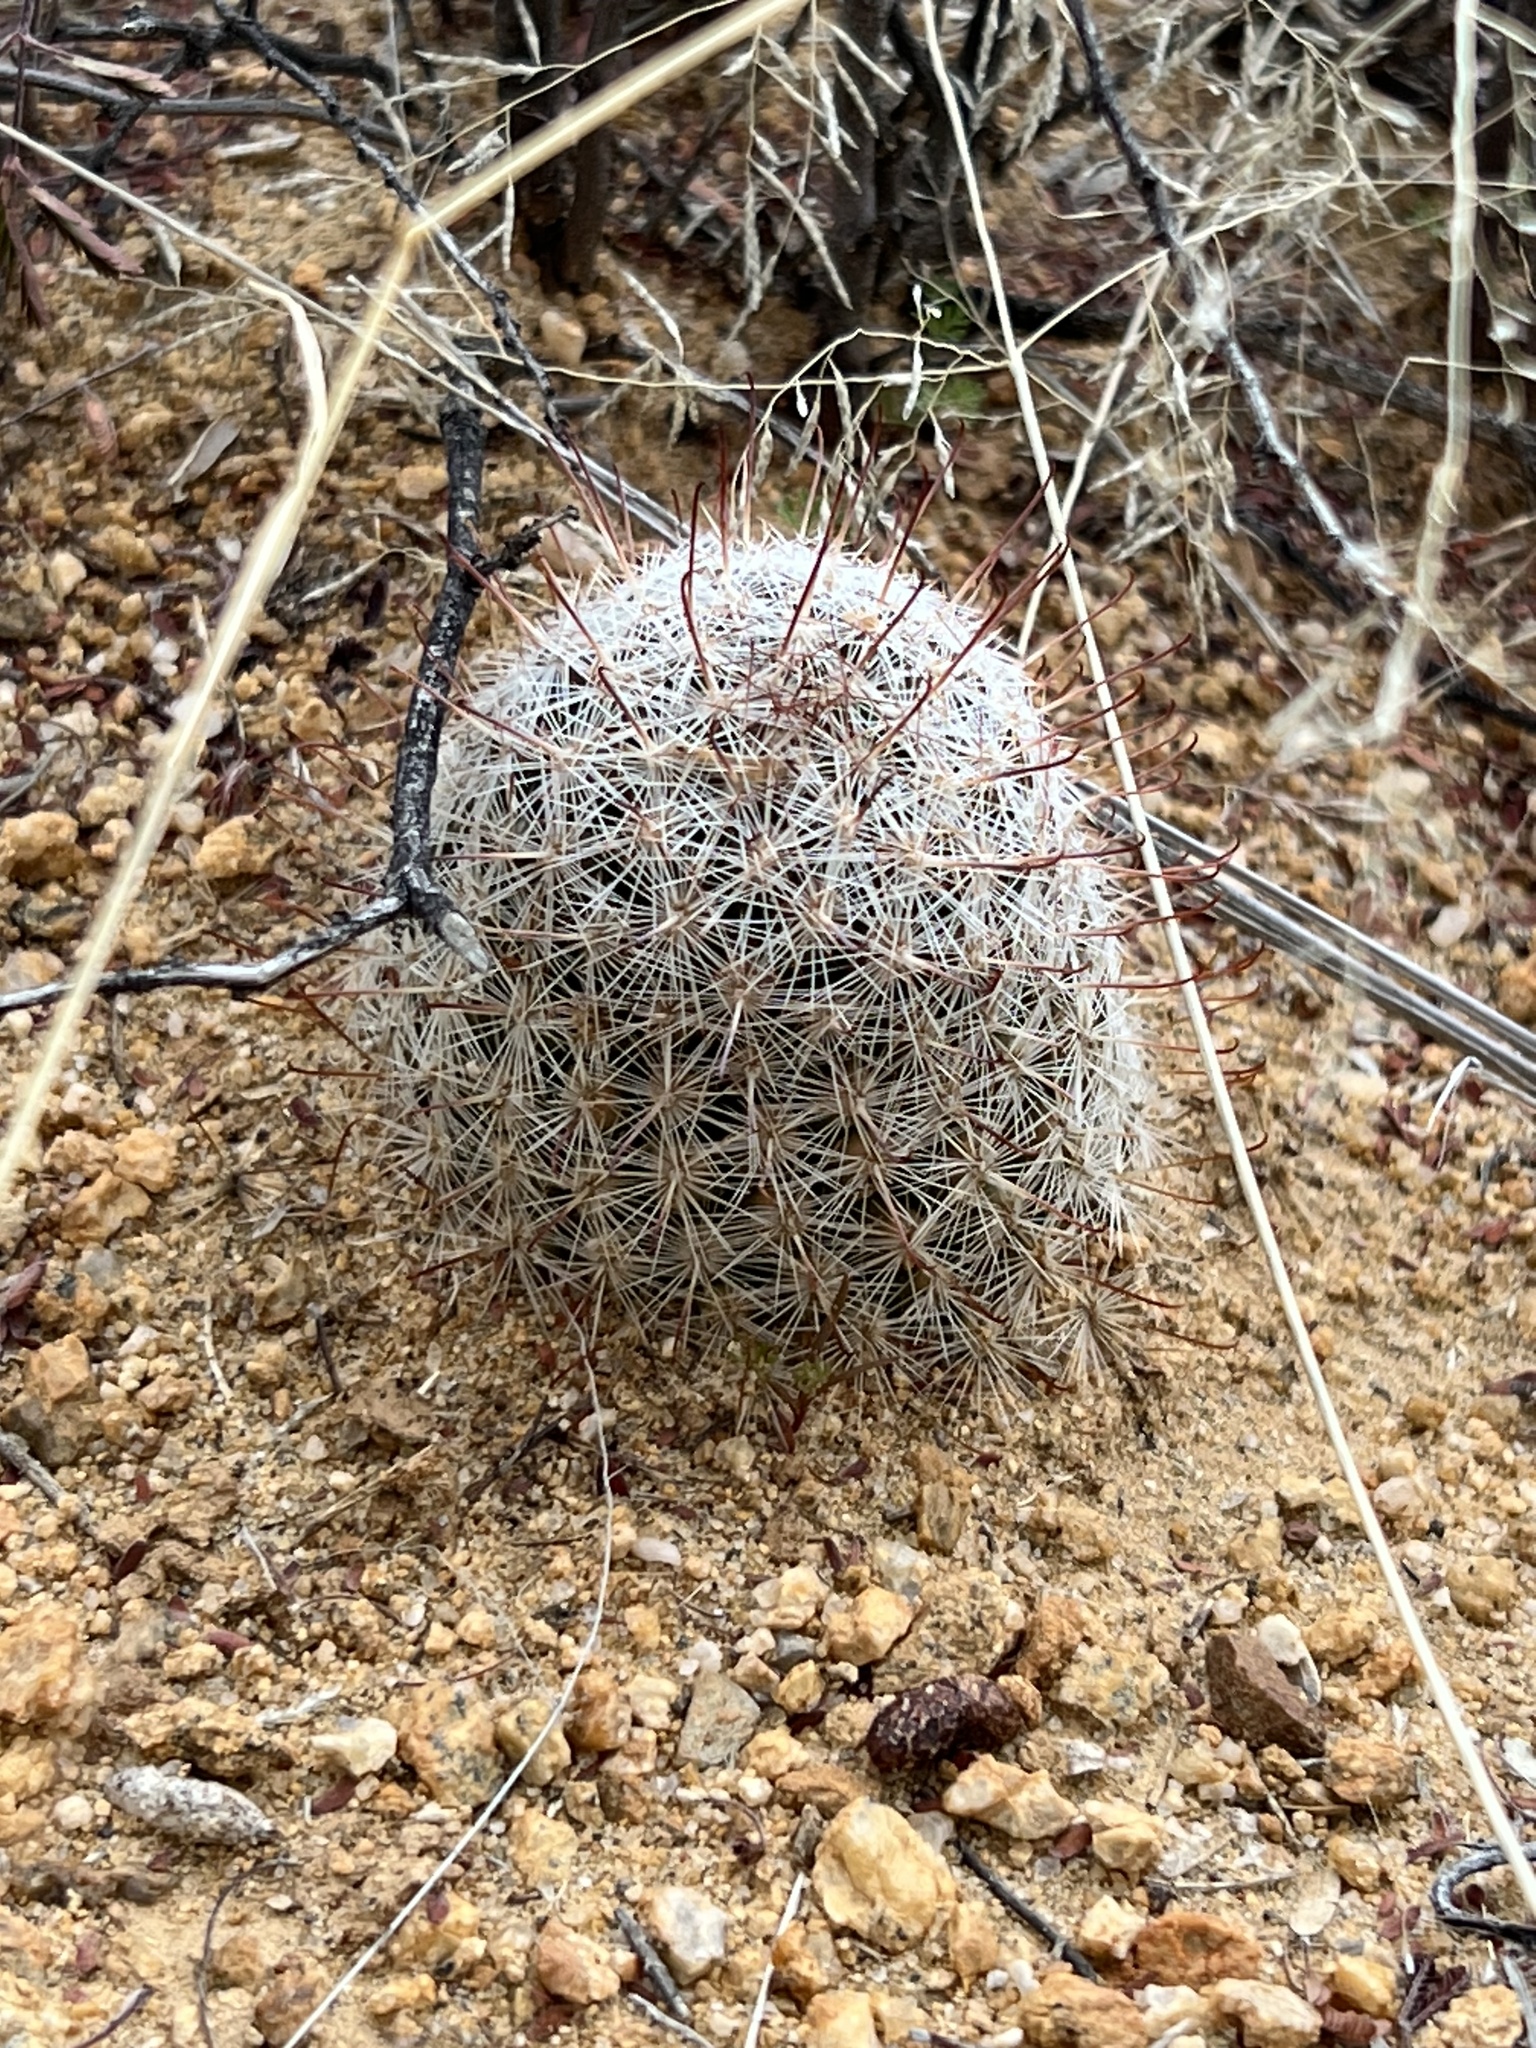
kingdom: Plantae
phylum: Tracheophyta
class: Magnoliopsida
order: Caryophyllales
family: Cactaceae
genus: Cochemiea
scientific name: Cochemiea grahamii
